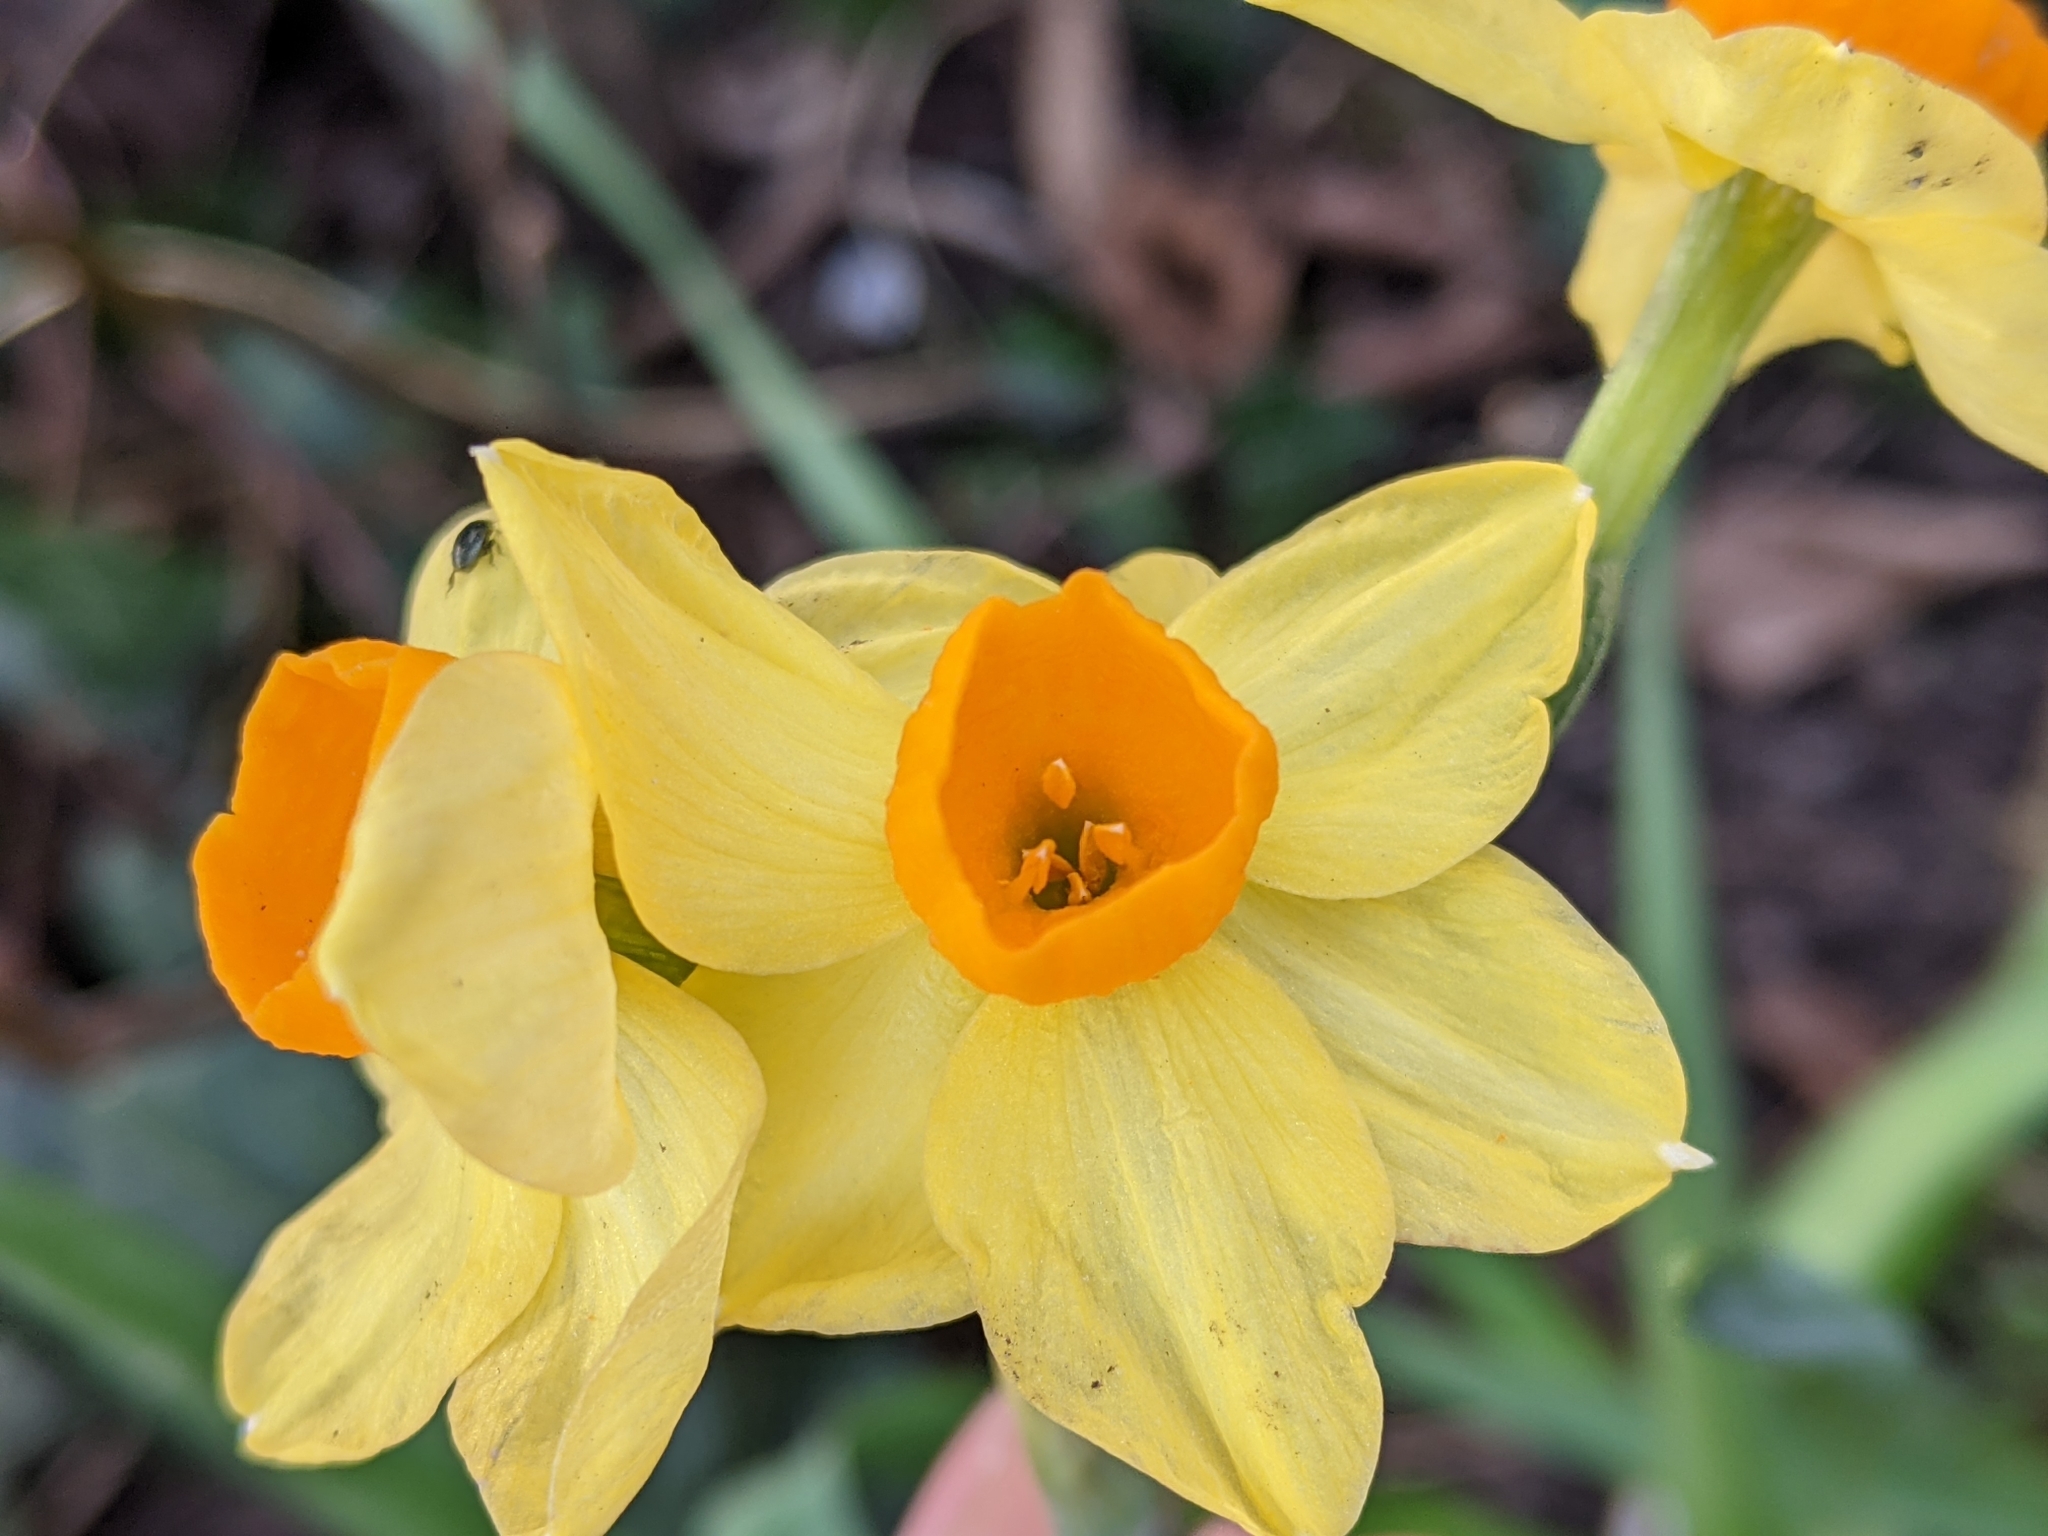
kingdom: Plantae
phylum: Tracheophyta
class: Liliopsida
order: Asparagales
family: Amaryllidaceae
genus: Narcissus
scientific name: Narcissus tazetta
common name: Bunch-flowered daffodil
